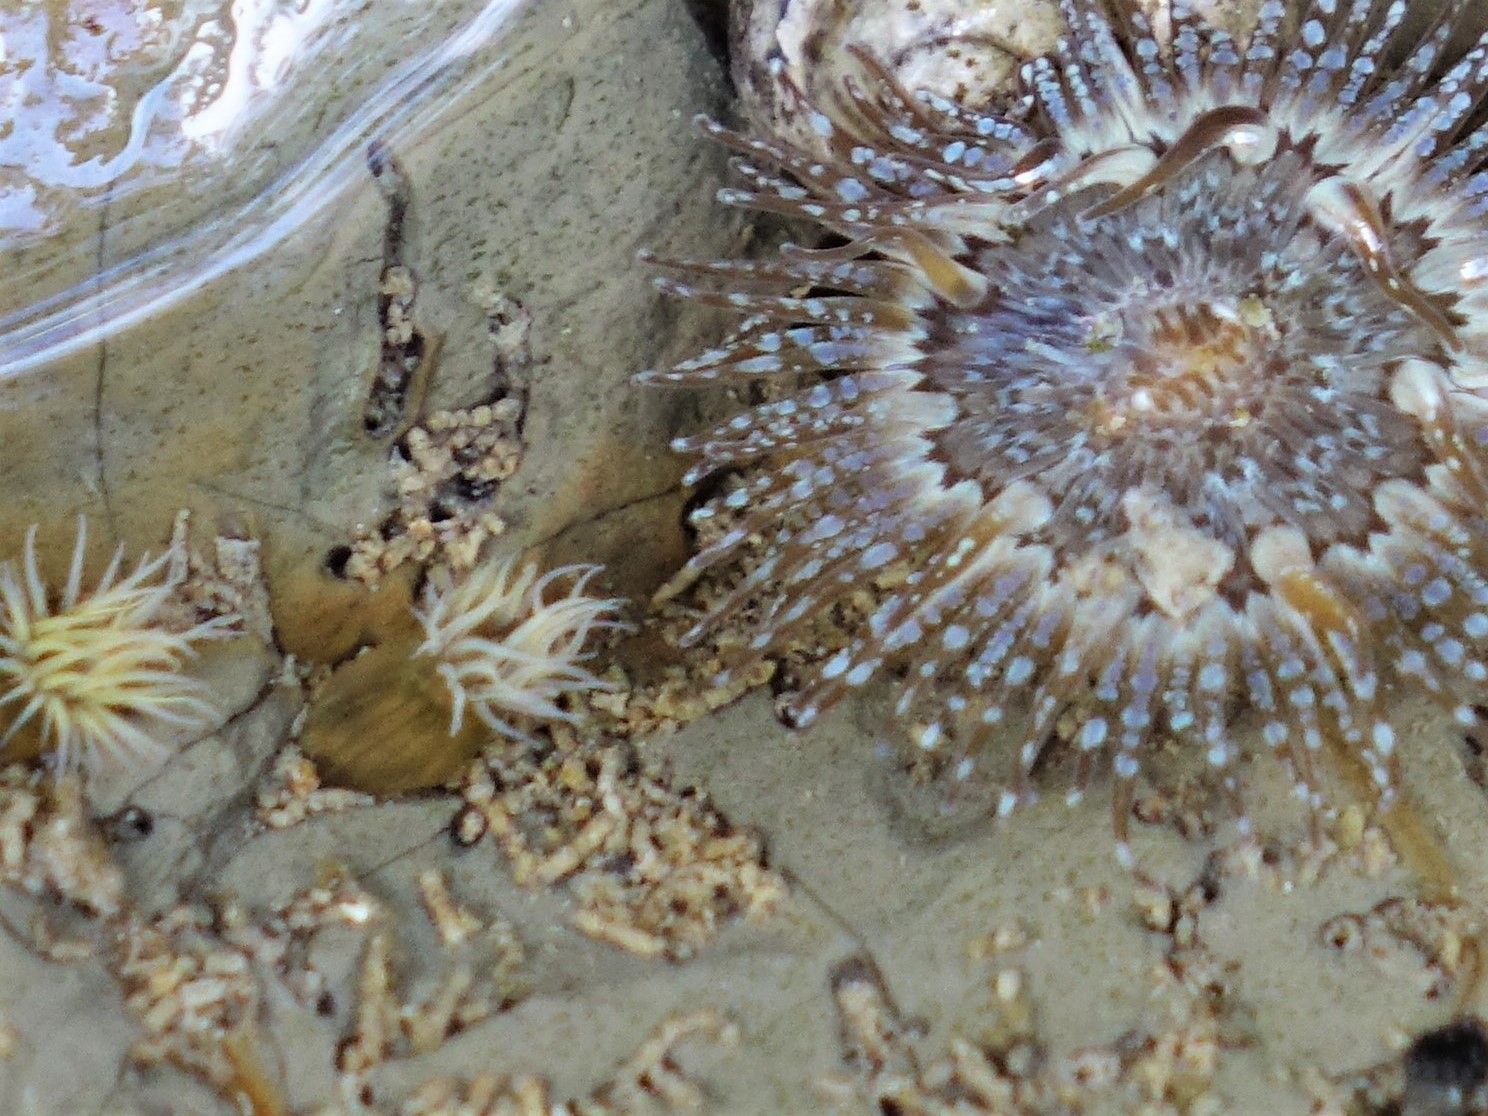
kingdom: Animalia
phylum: Cnidaria
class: Anthozoa
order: Actiniaria
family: Diadumenidae
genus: Diadumene
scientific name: Diadumene lineata
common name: Orange-striped anemone
